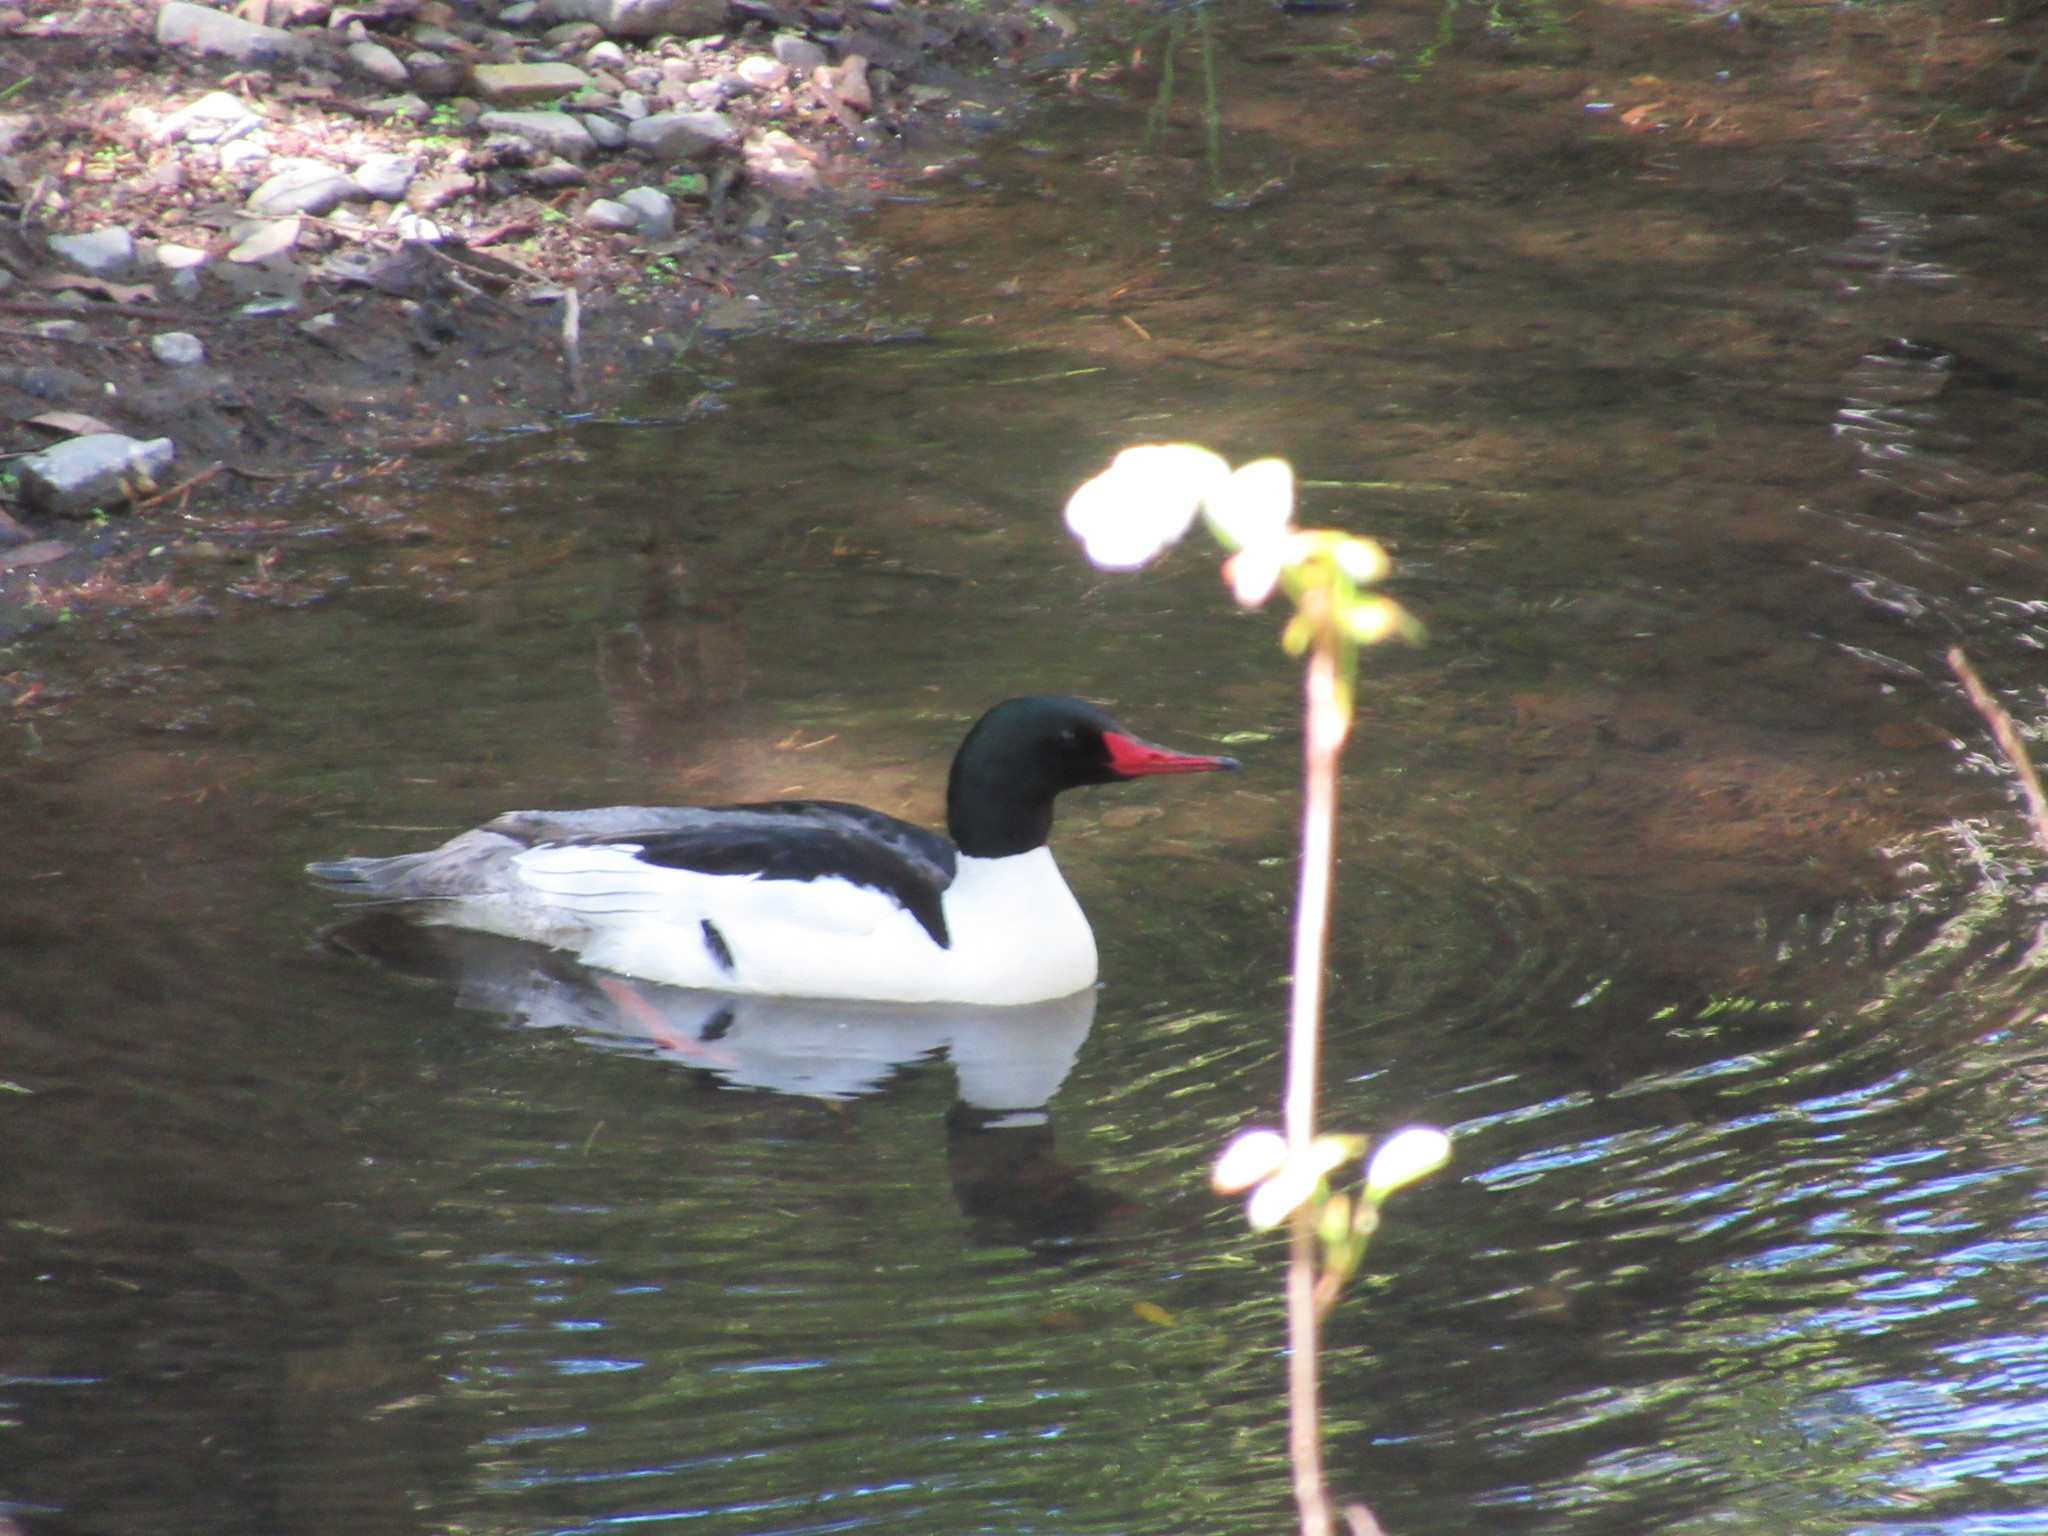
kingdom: Animalia
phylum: Chordata
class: Aves
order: Anseriformes
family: Anatidae
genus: Mergus
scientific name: Mergus merganser
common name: Common merganser
